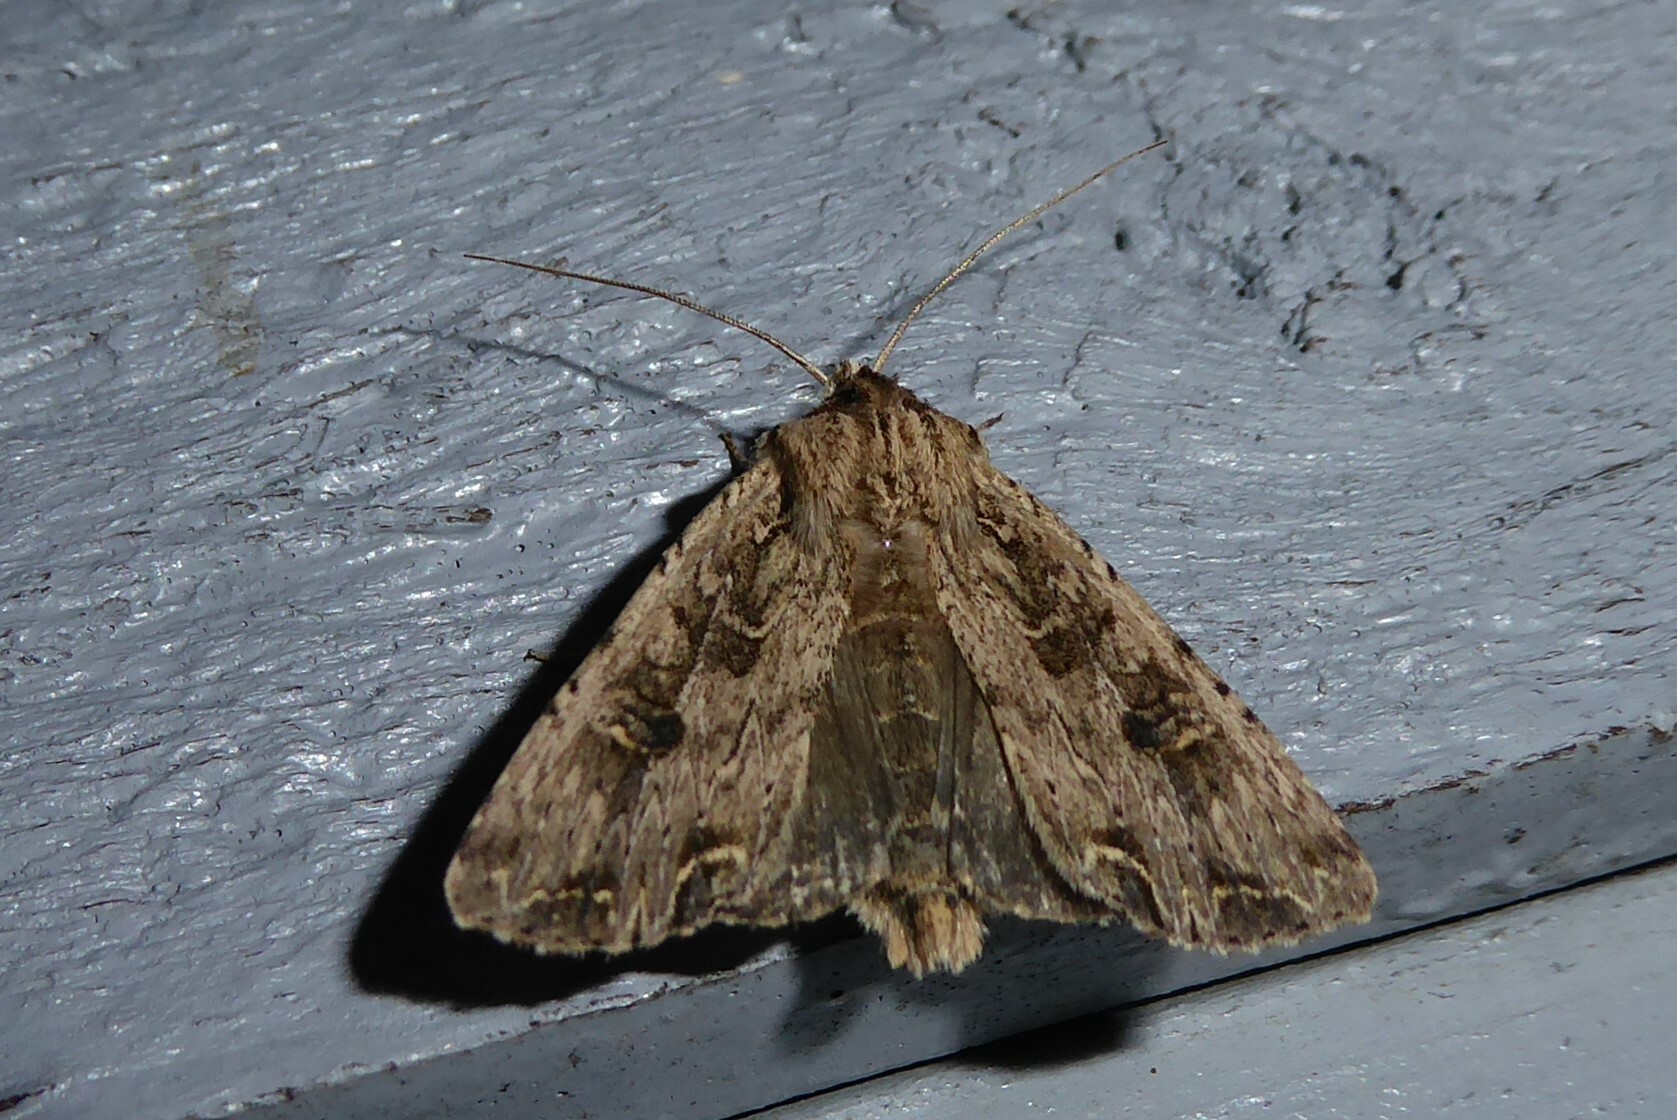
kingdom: Animalia
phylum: Arthropoda
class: Insecta
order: Lepidoptera
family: Noctuidae
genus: Ichneutica
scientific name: Ichneutica lignana
